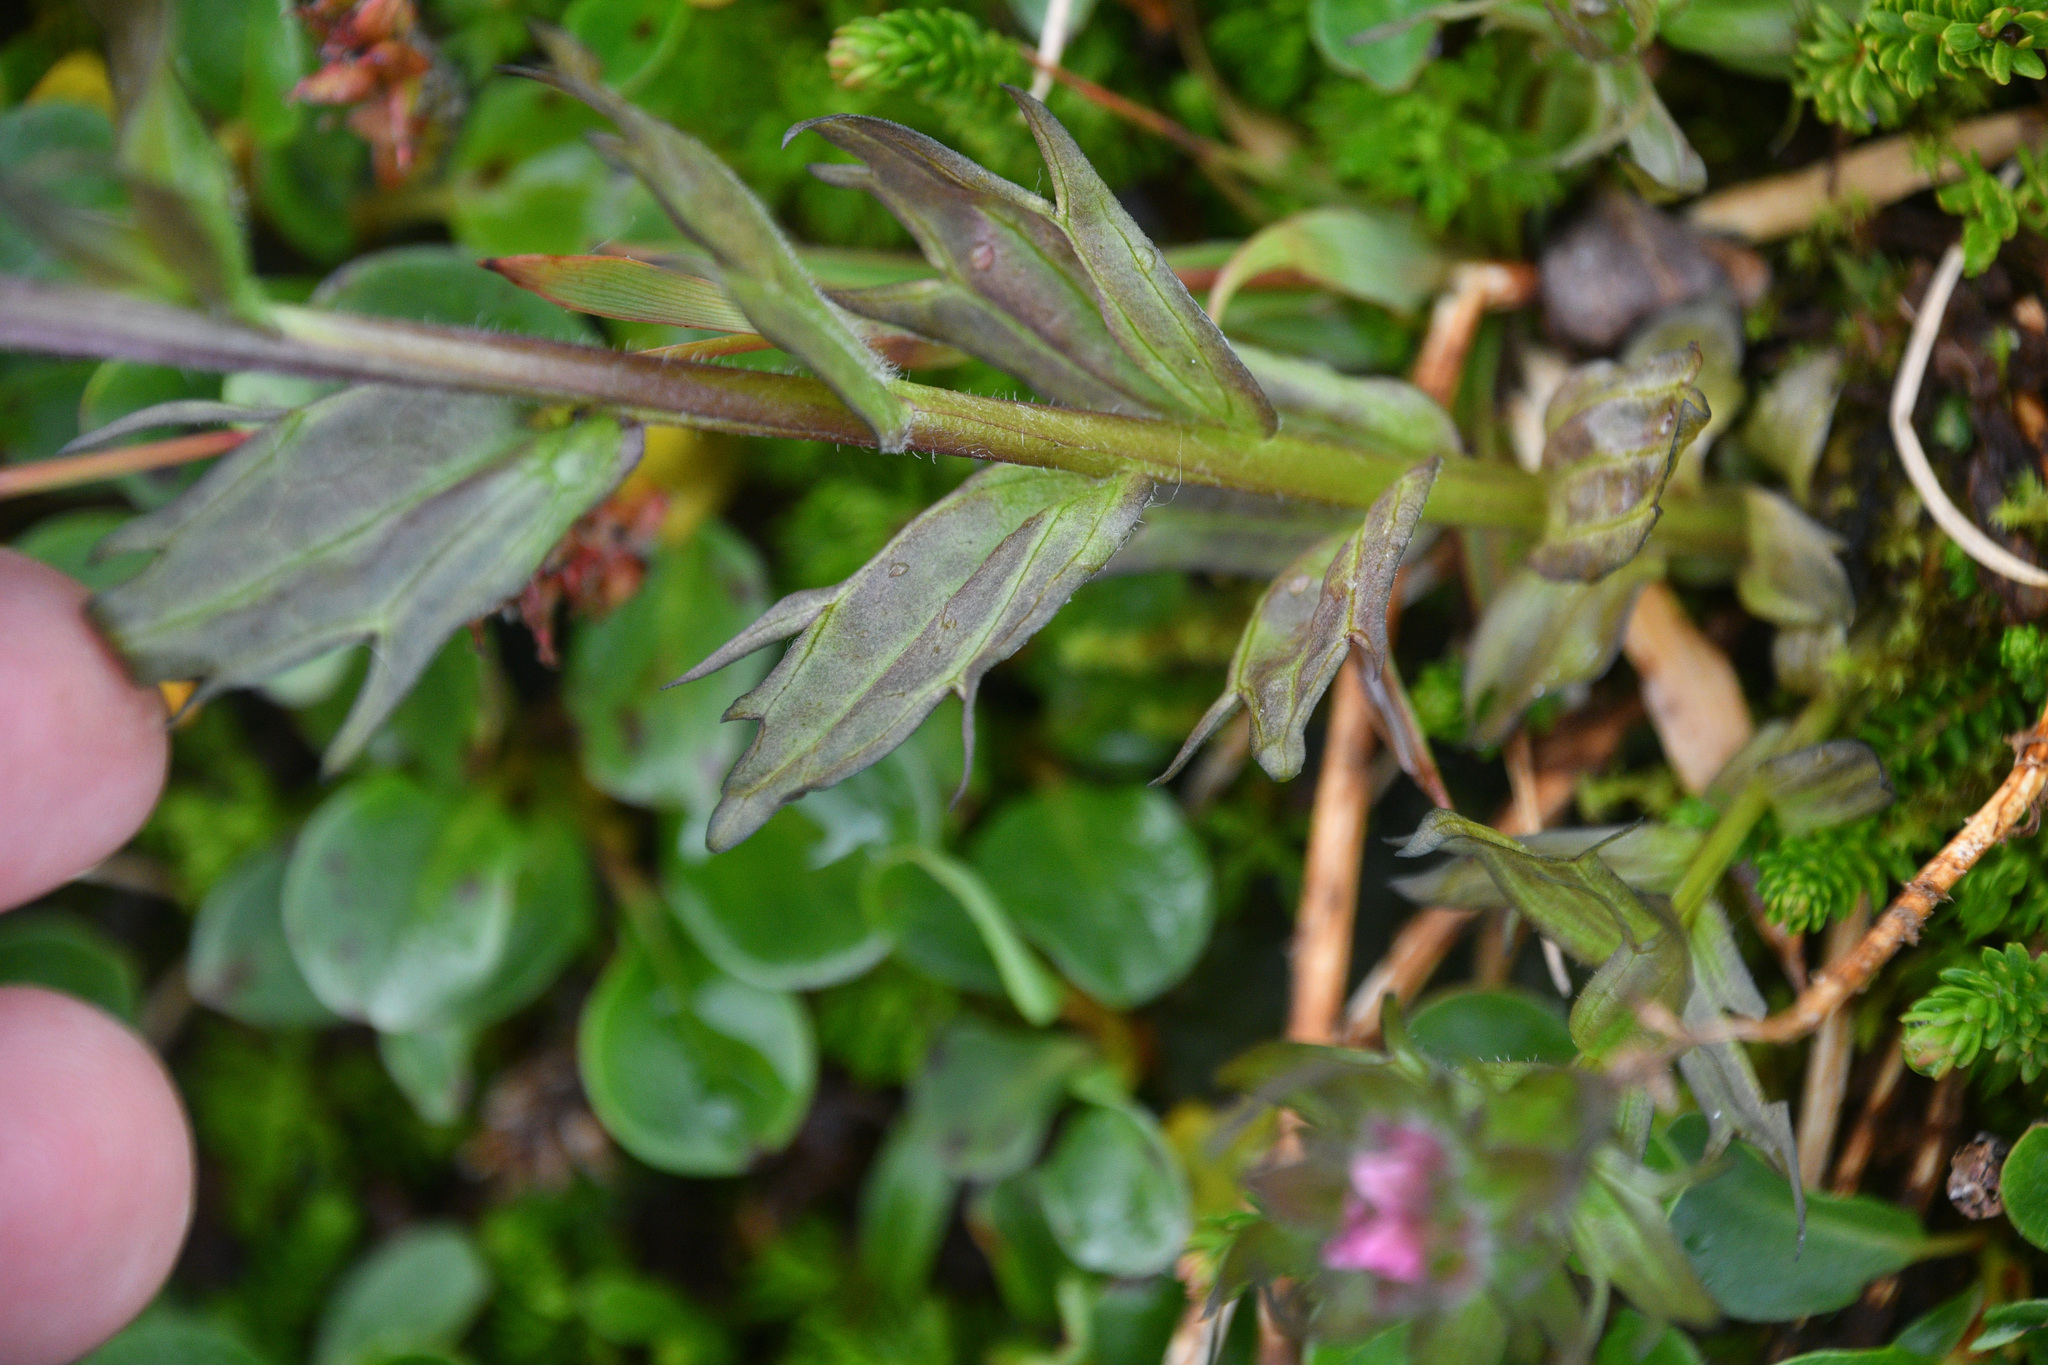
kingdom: Plantae
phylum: Tracheophyta
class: Magnoliopsida
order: Lamiales
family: Orobanchaceae
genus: Castilleja
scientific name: Castilleja parviflora
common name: Mountain paintbrush
